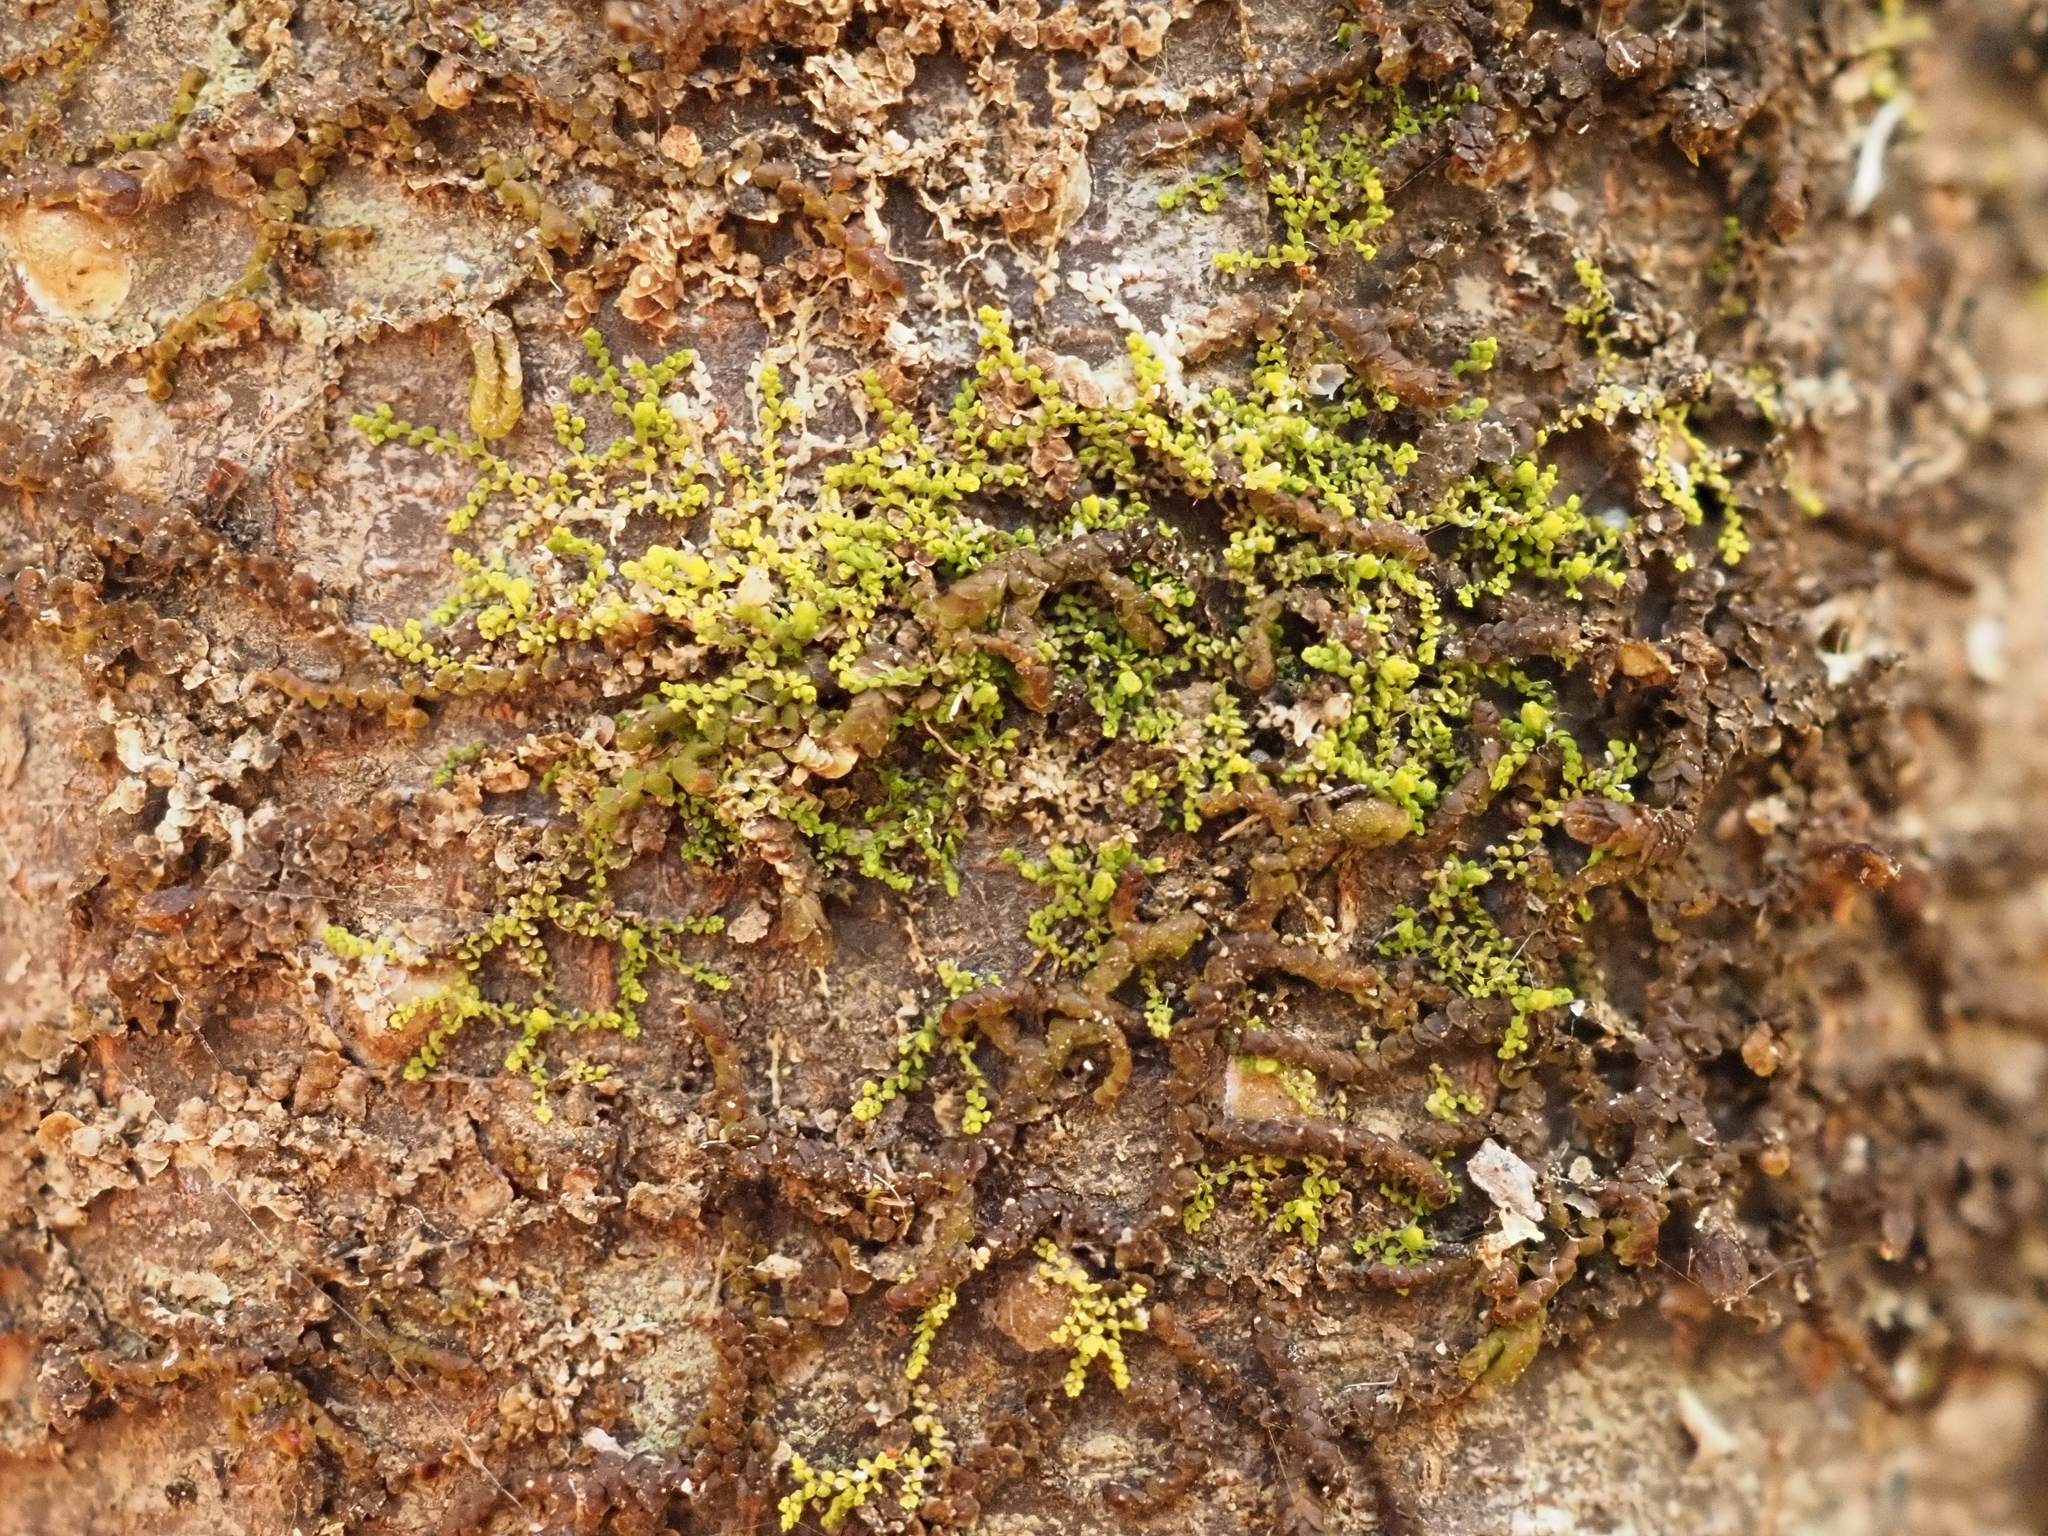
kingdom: Plantae
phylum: Marchantiophyta
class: Jungermanniopsida
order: Porellales
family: Lejeuneaceae
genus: Siphonolejeunea
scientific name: Siphonolejeunea occidentalis
